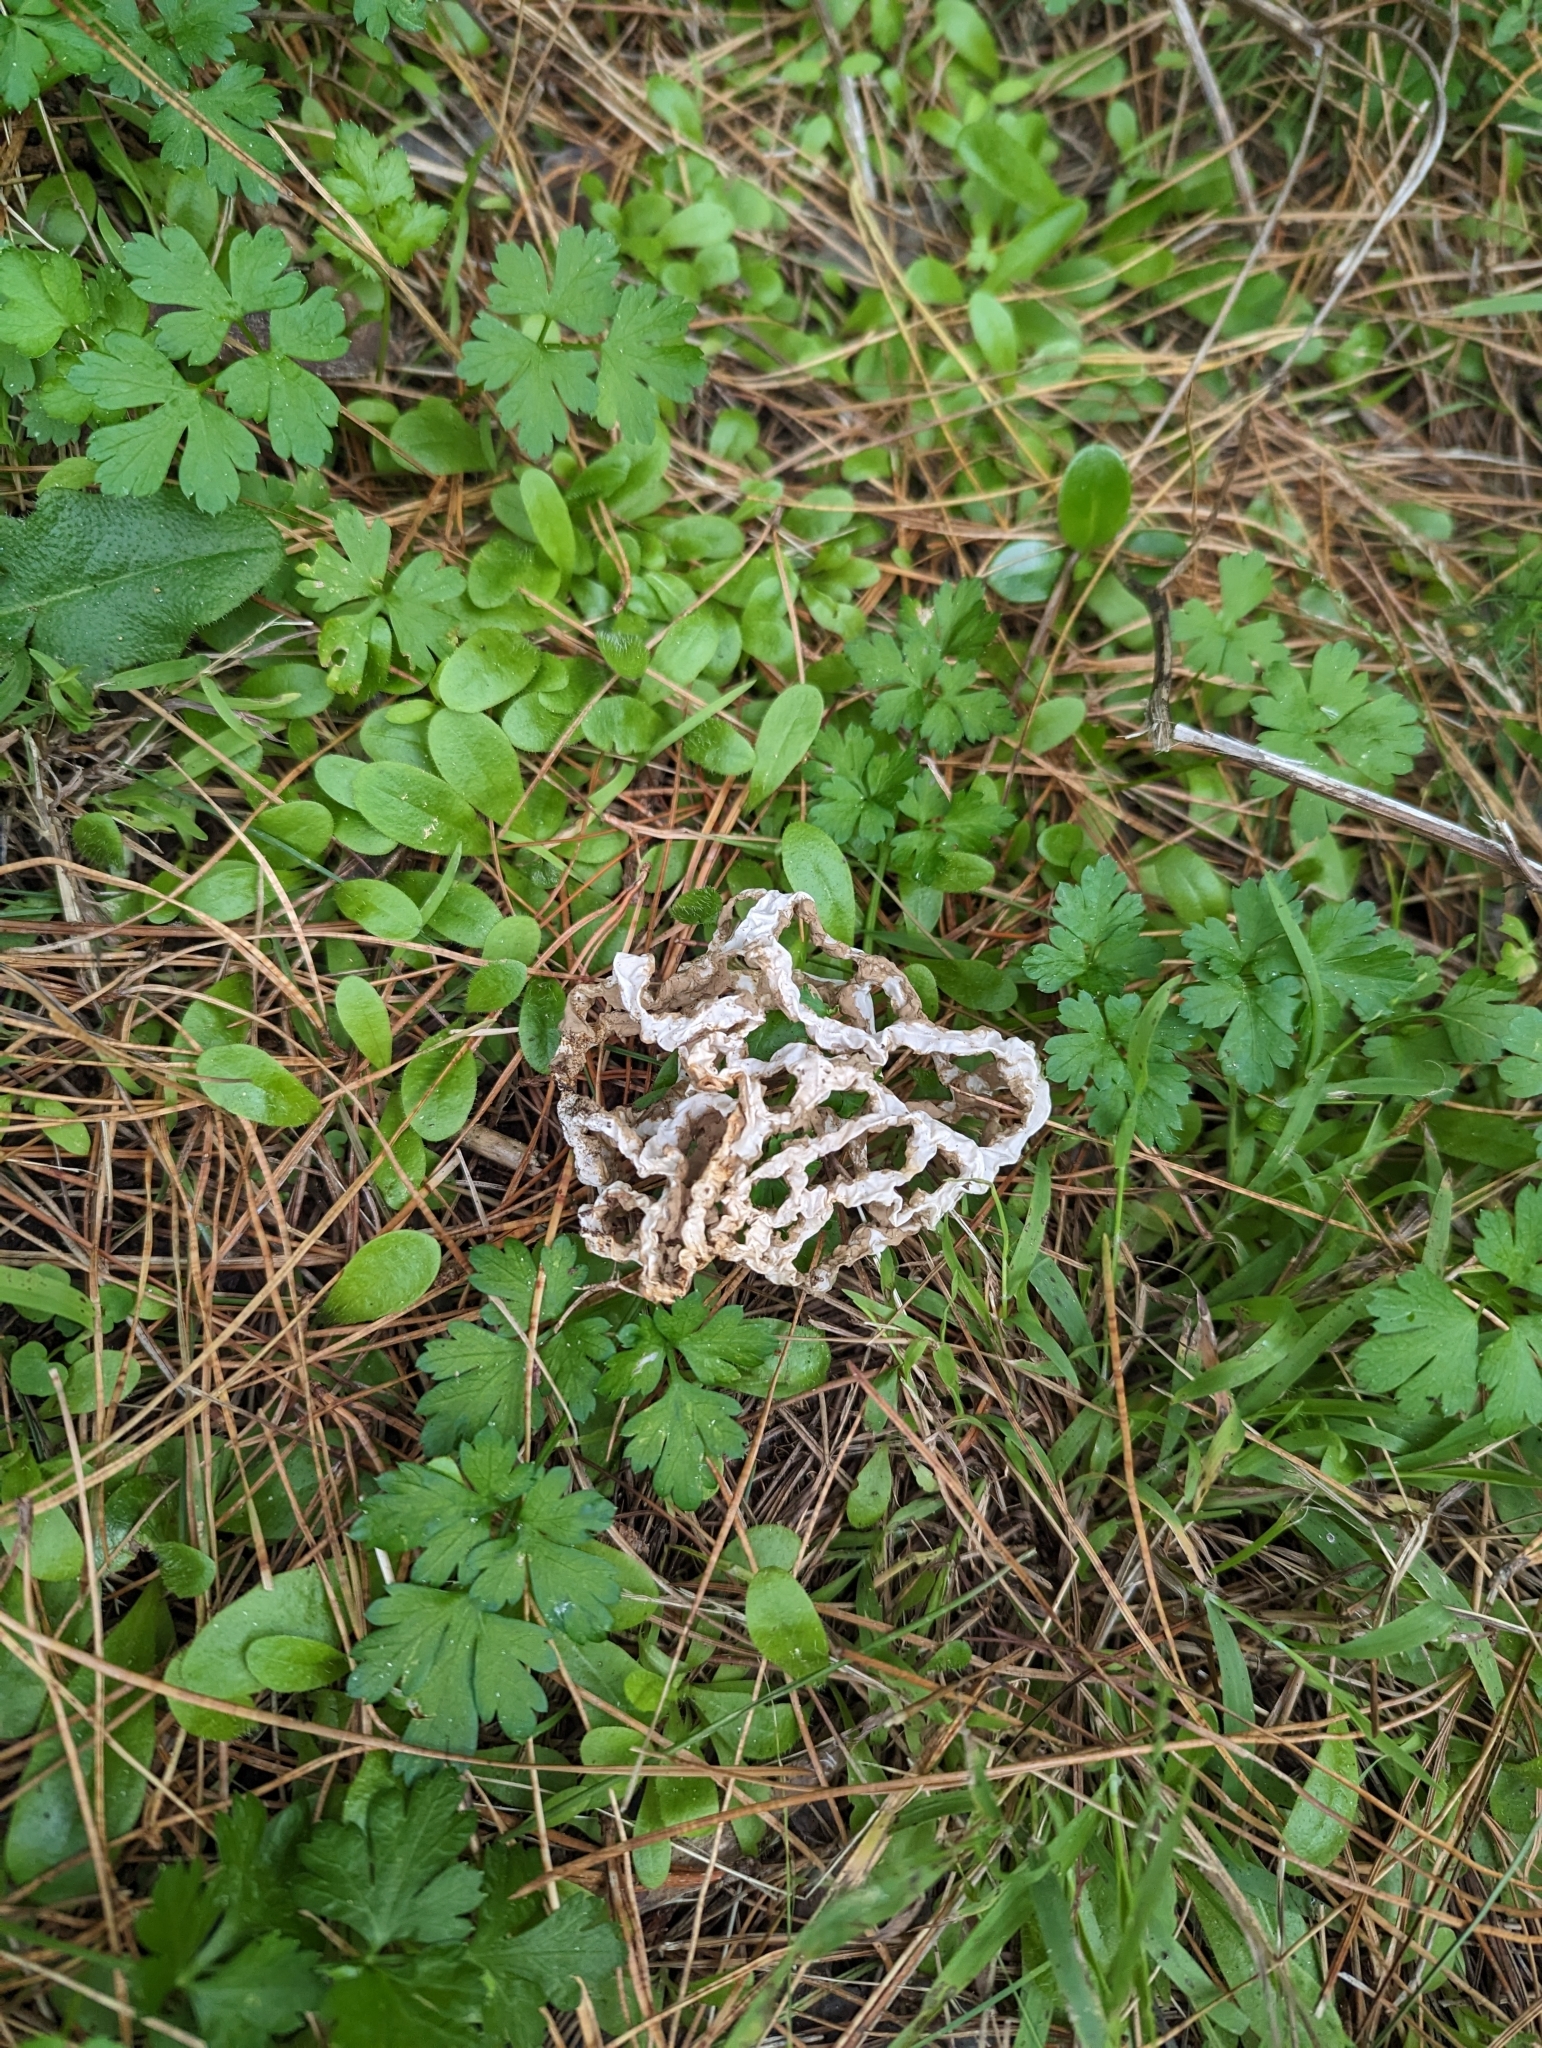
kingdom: Fungi
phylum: Basidiomycota
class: Agaricomycetes
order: Phallales
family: Phallaceae
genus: Ileodictyon
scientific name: Ileodictyon cibarium
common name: Basket fungus
